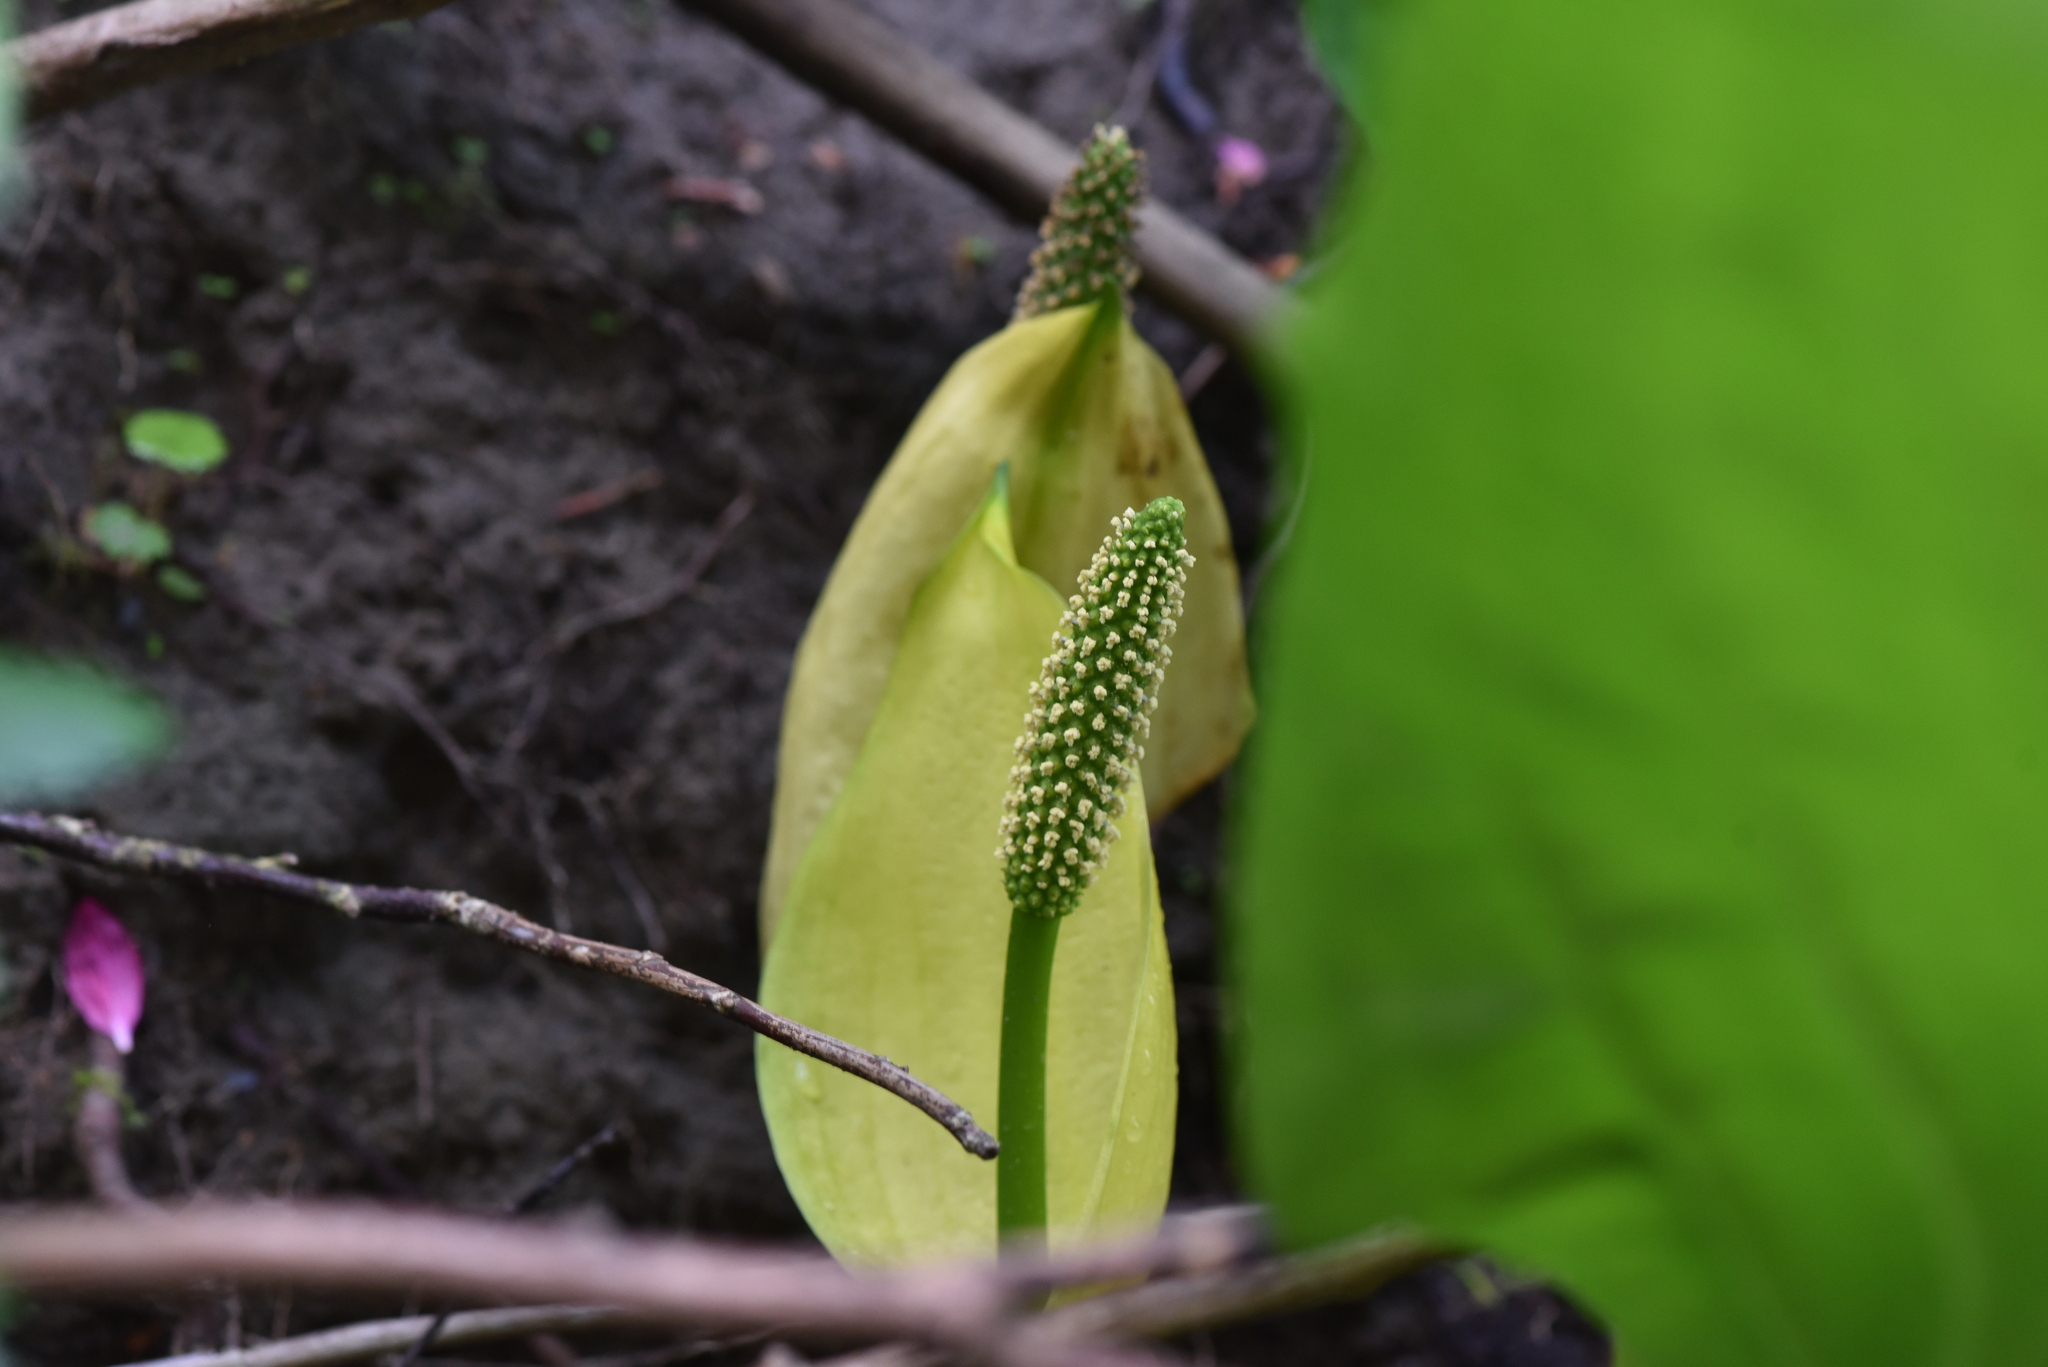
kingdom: Plantae
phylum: Tracheophyta
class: Liliopsida
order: Alismatales
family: Araceae
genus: Lysichiton
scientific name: Lysichiton americanus
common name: American skunk cabbage
